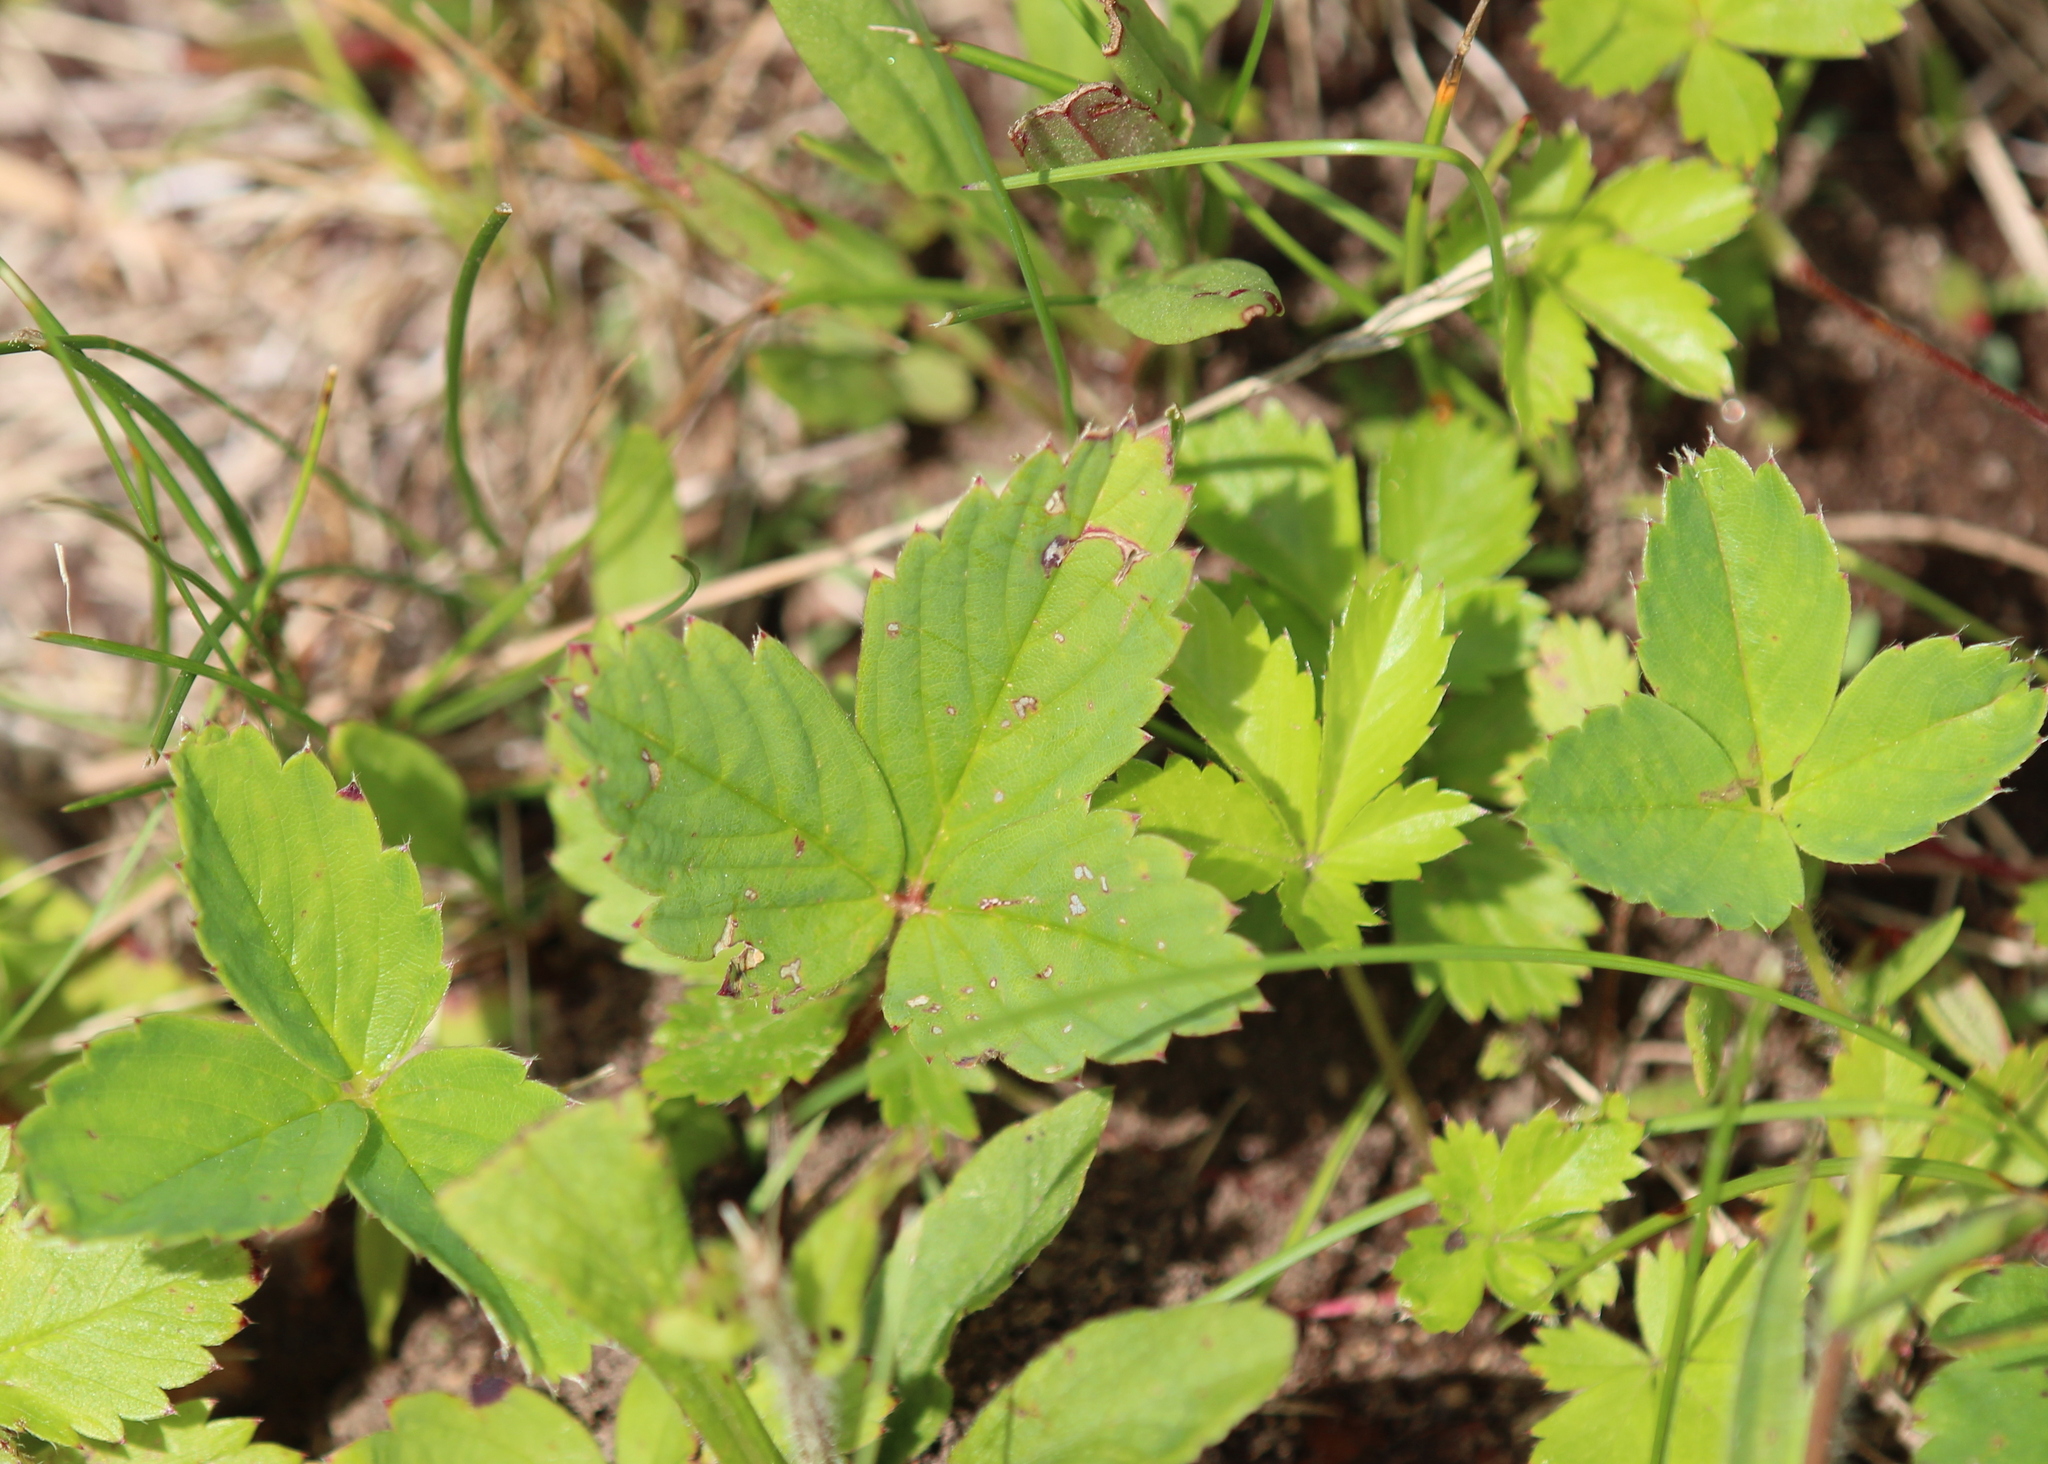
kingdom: Plantae
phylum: Tracheophyta
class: Magnoliopsida
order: Rosales
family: Rosaceae
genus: Fragaria
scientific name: Fragaria virginiana
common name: Thickleaved wild strawberry
